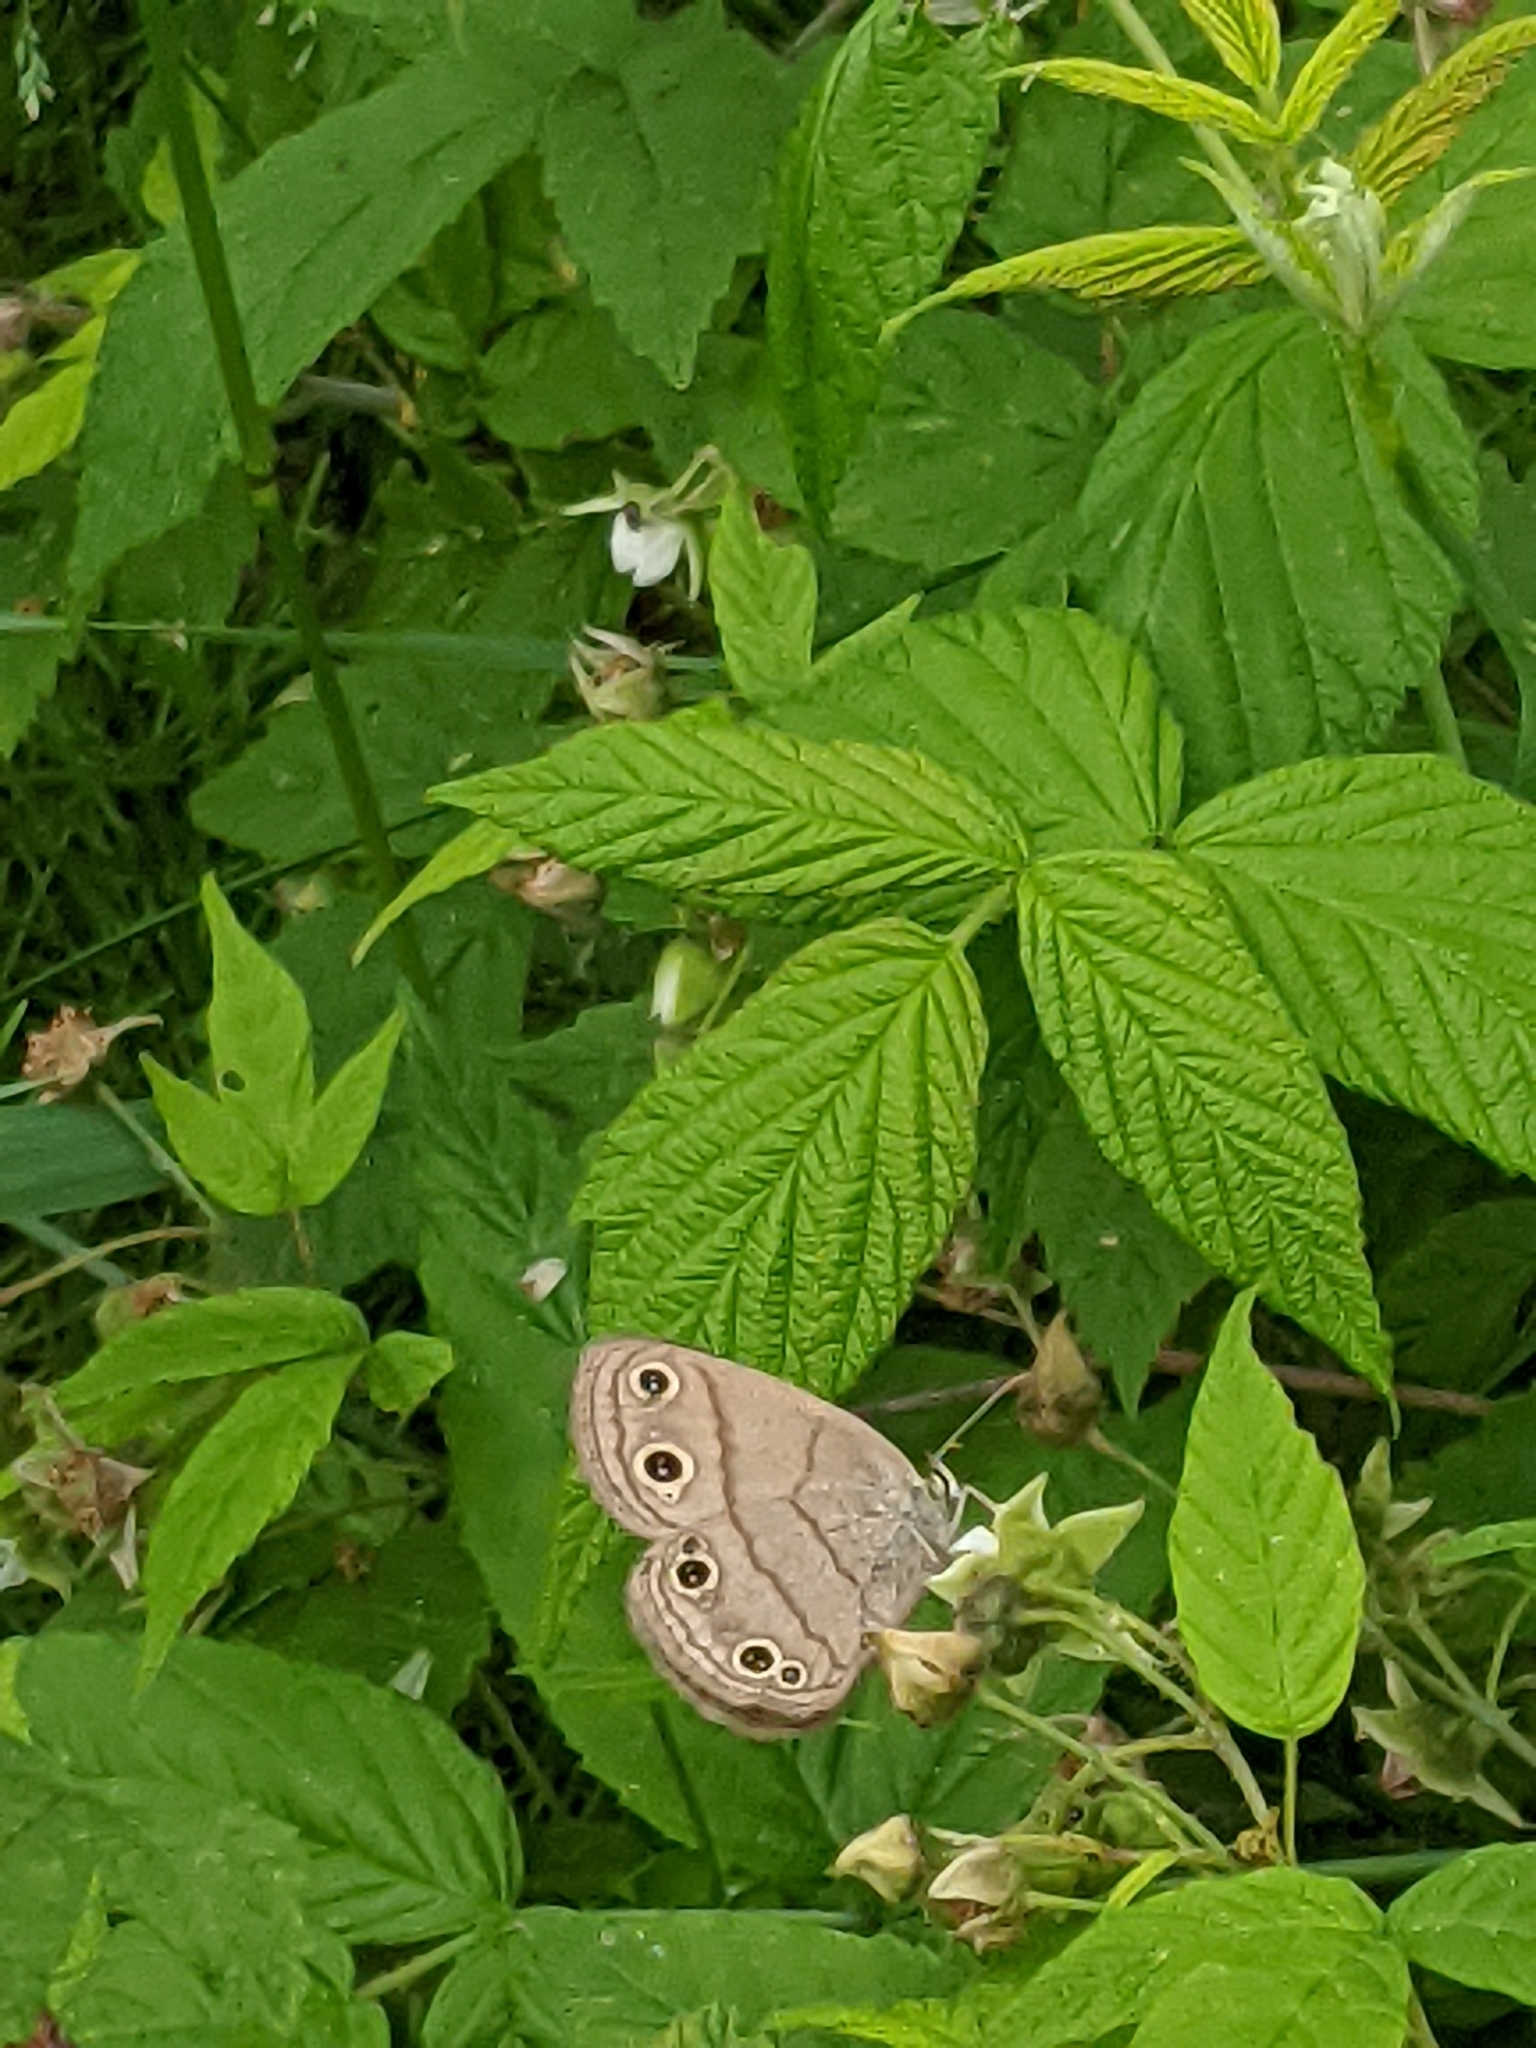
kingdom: Animalia
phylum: Arthropoda
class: Insecta
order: Lepidoptera
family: Nymphalidae
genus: Euptychia
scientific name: Euptychia cymela
